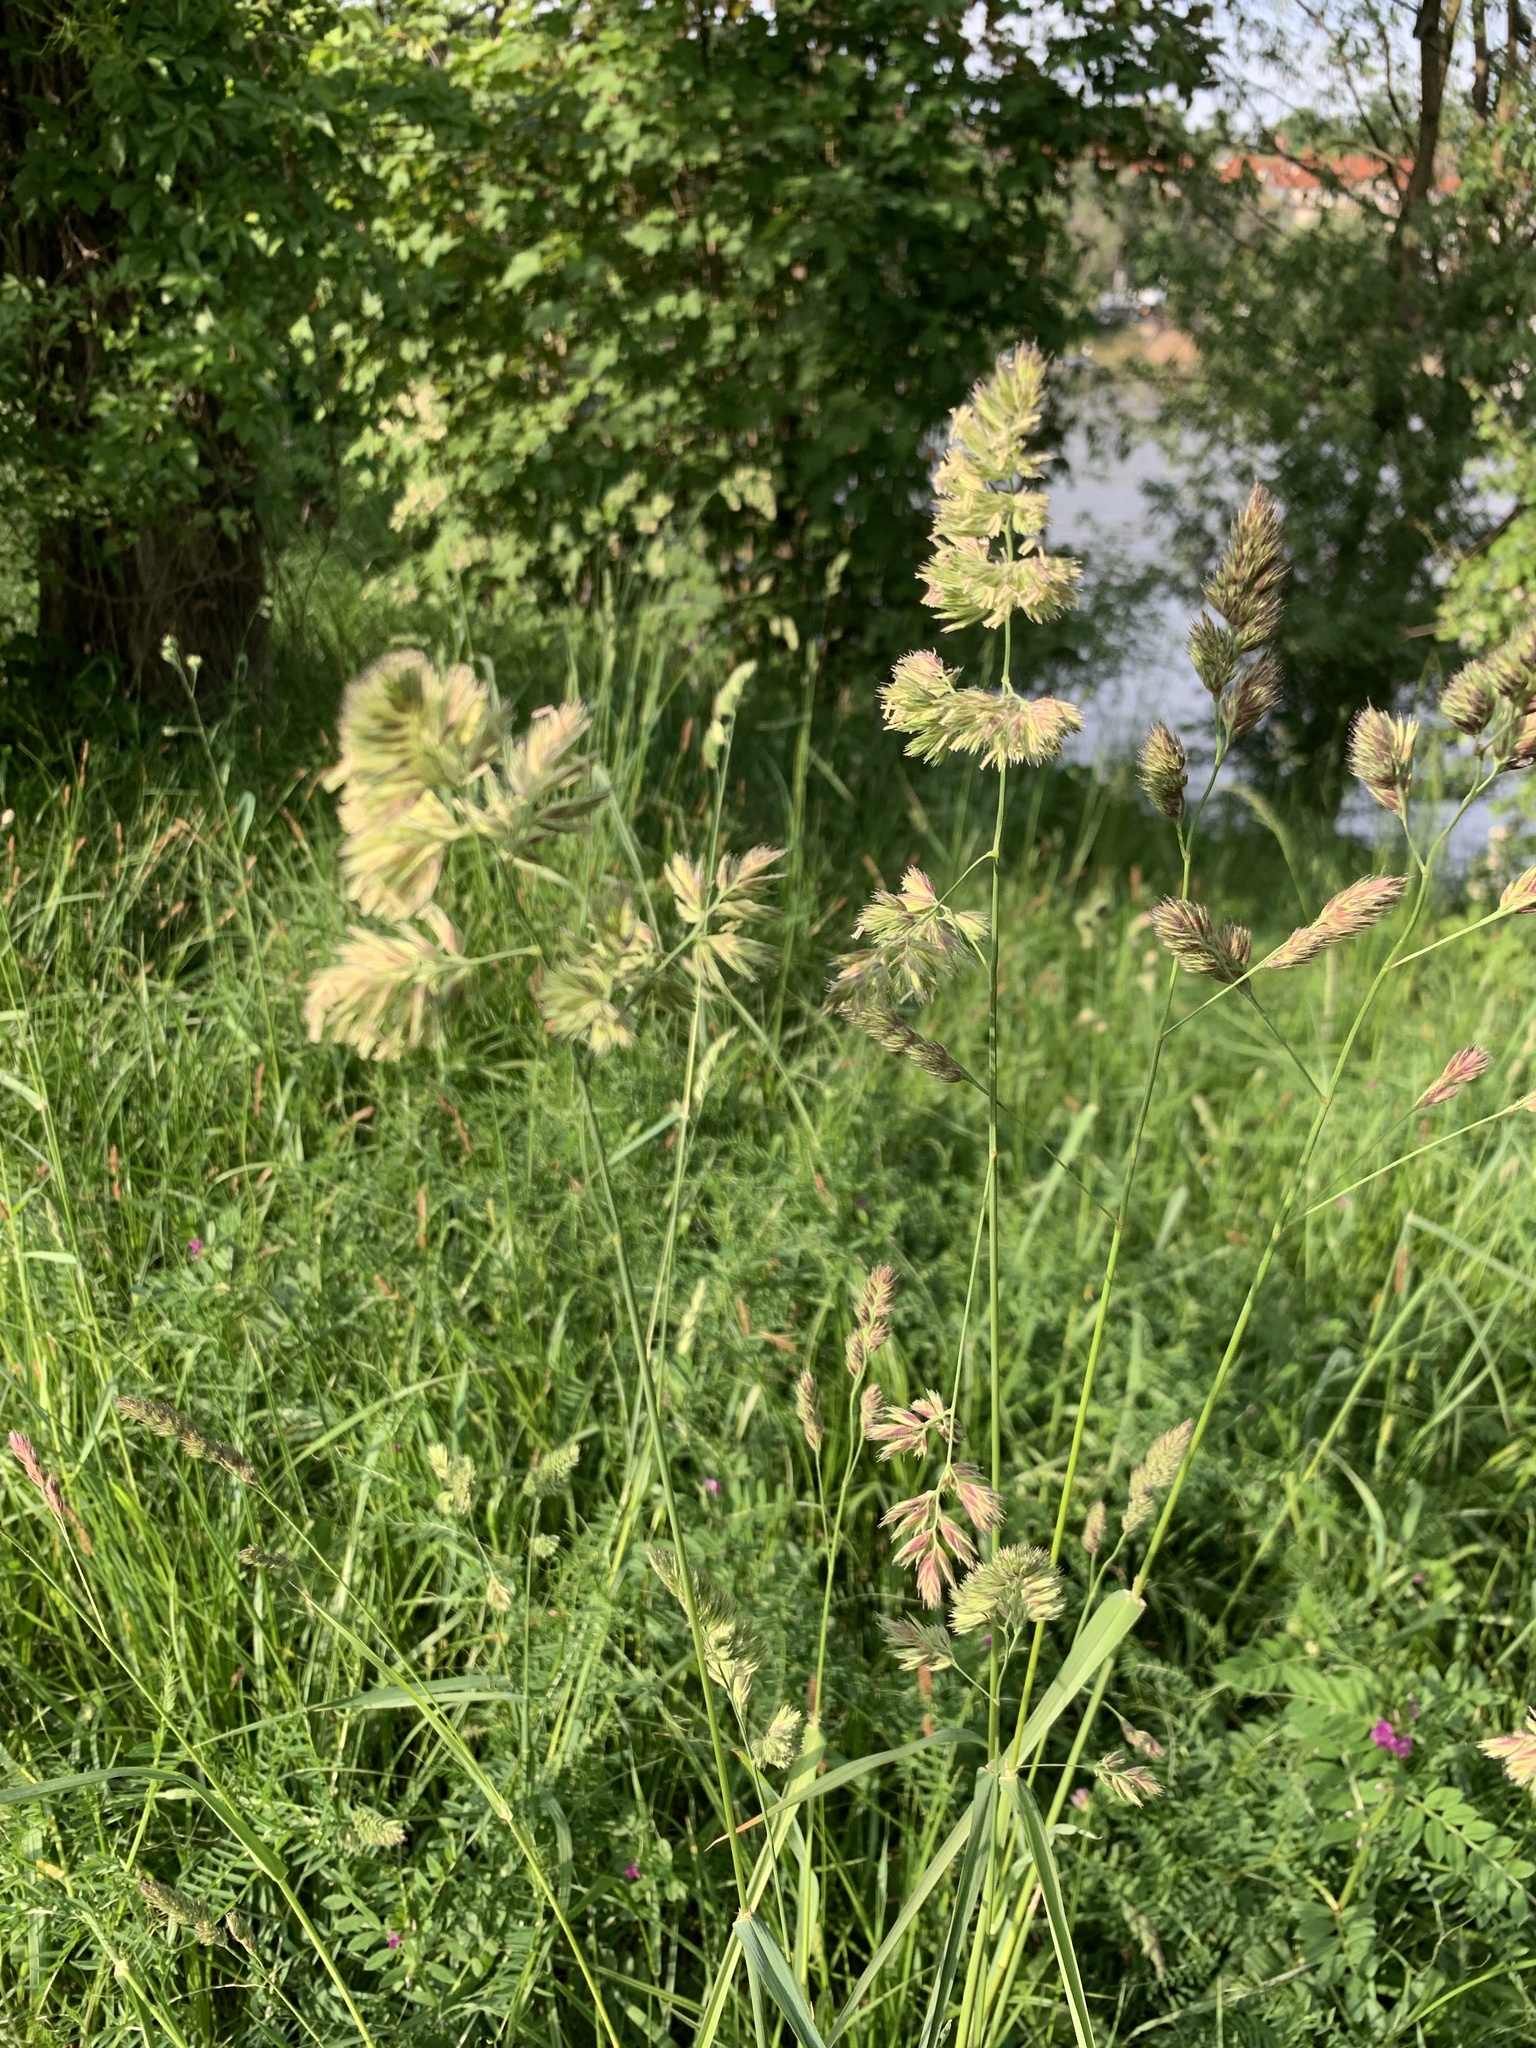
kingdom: Plantae
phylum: Tracheophyta
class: Liliopsida
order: Poales
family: Poaceae
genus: Dactylis
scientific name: Dactylis glomerata
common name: Orchardgrass
